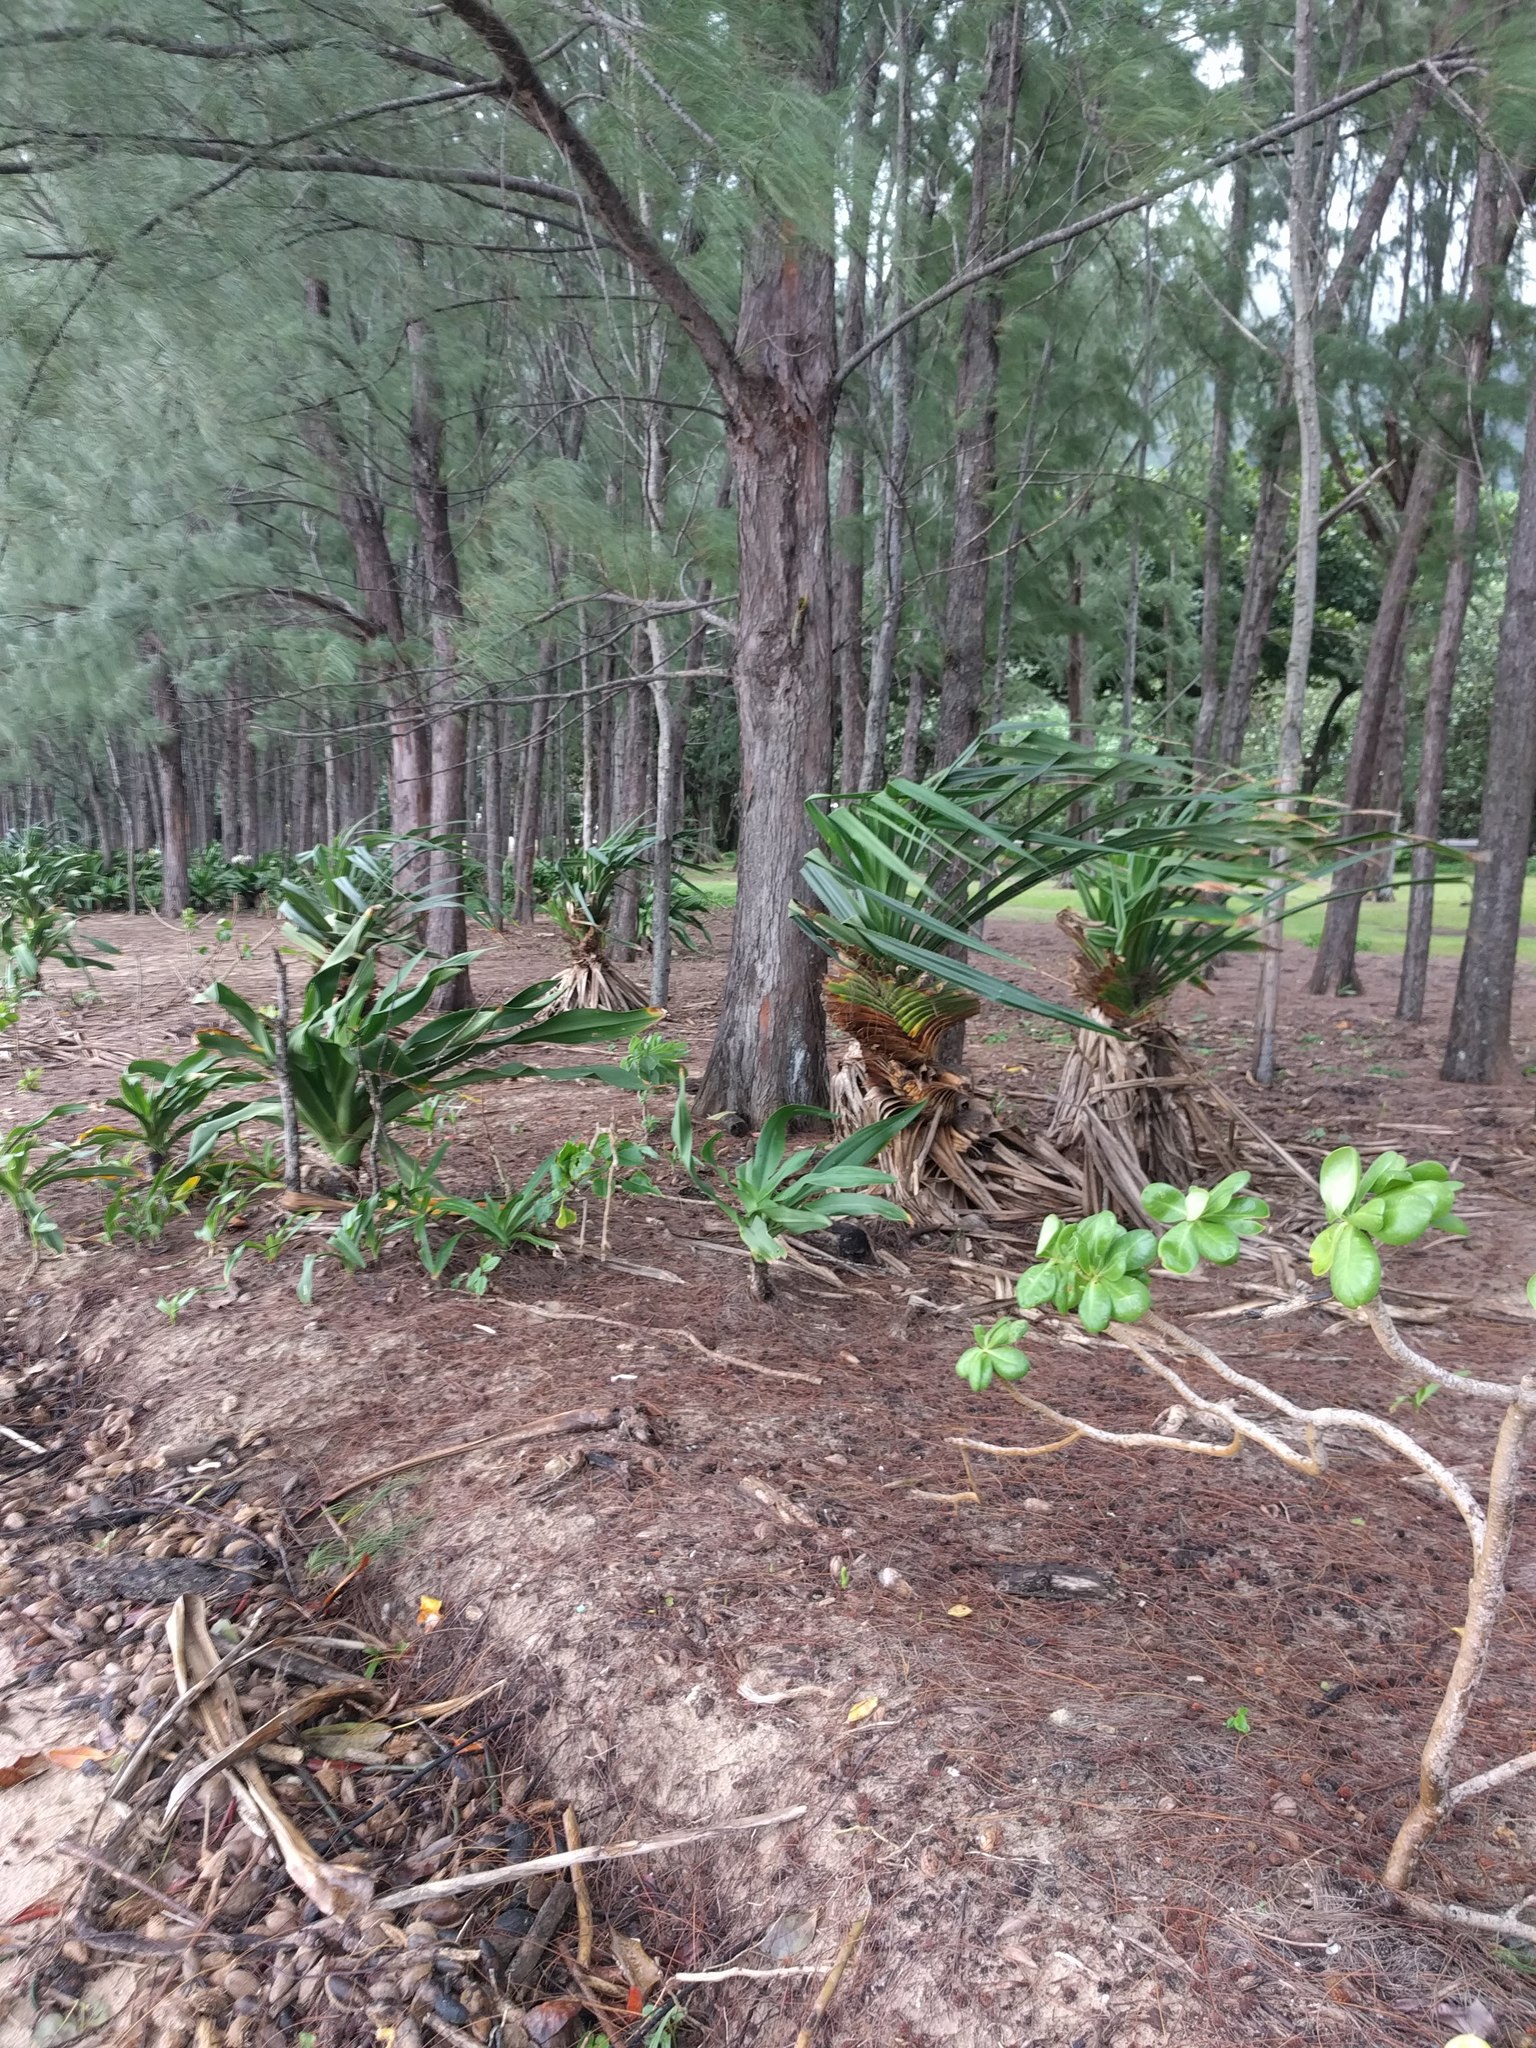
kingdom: Plantae
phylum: Tracheophyta
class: Liliopsida
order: Pandanales
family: Pandanaceae
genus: Pandanus
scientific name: Pandanus tectorius
